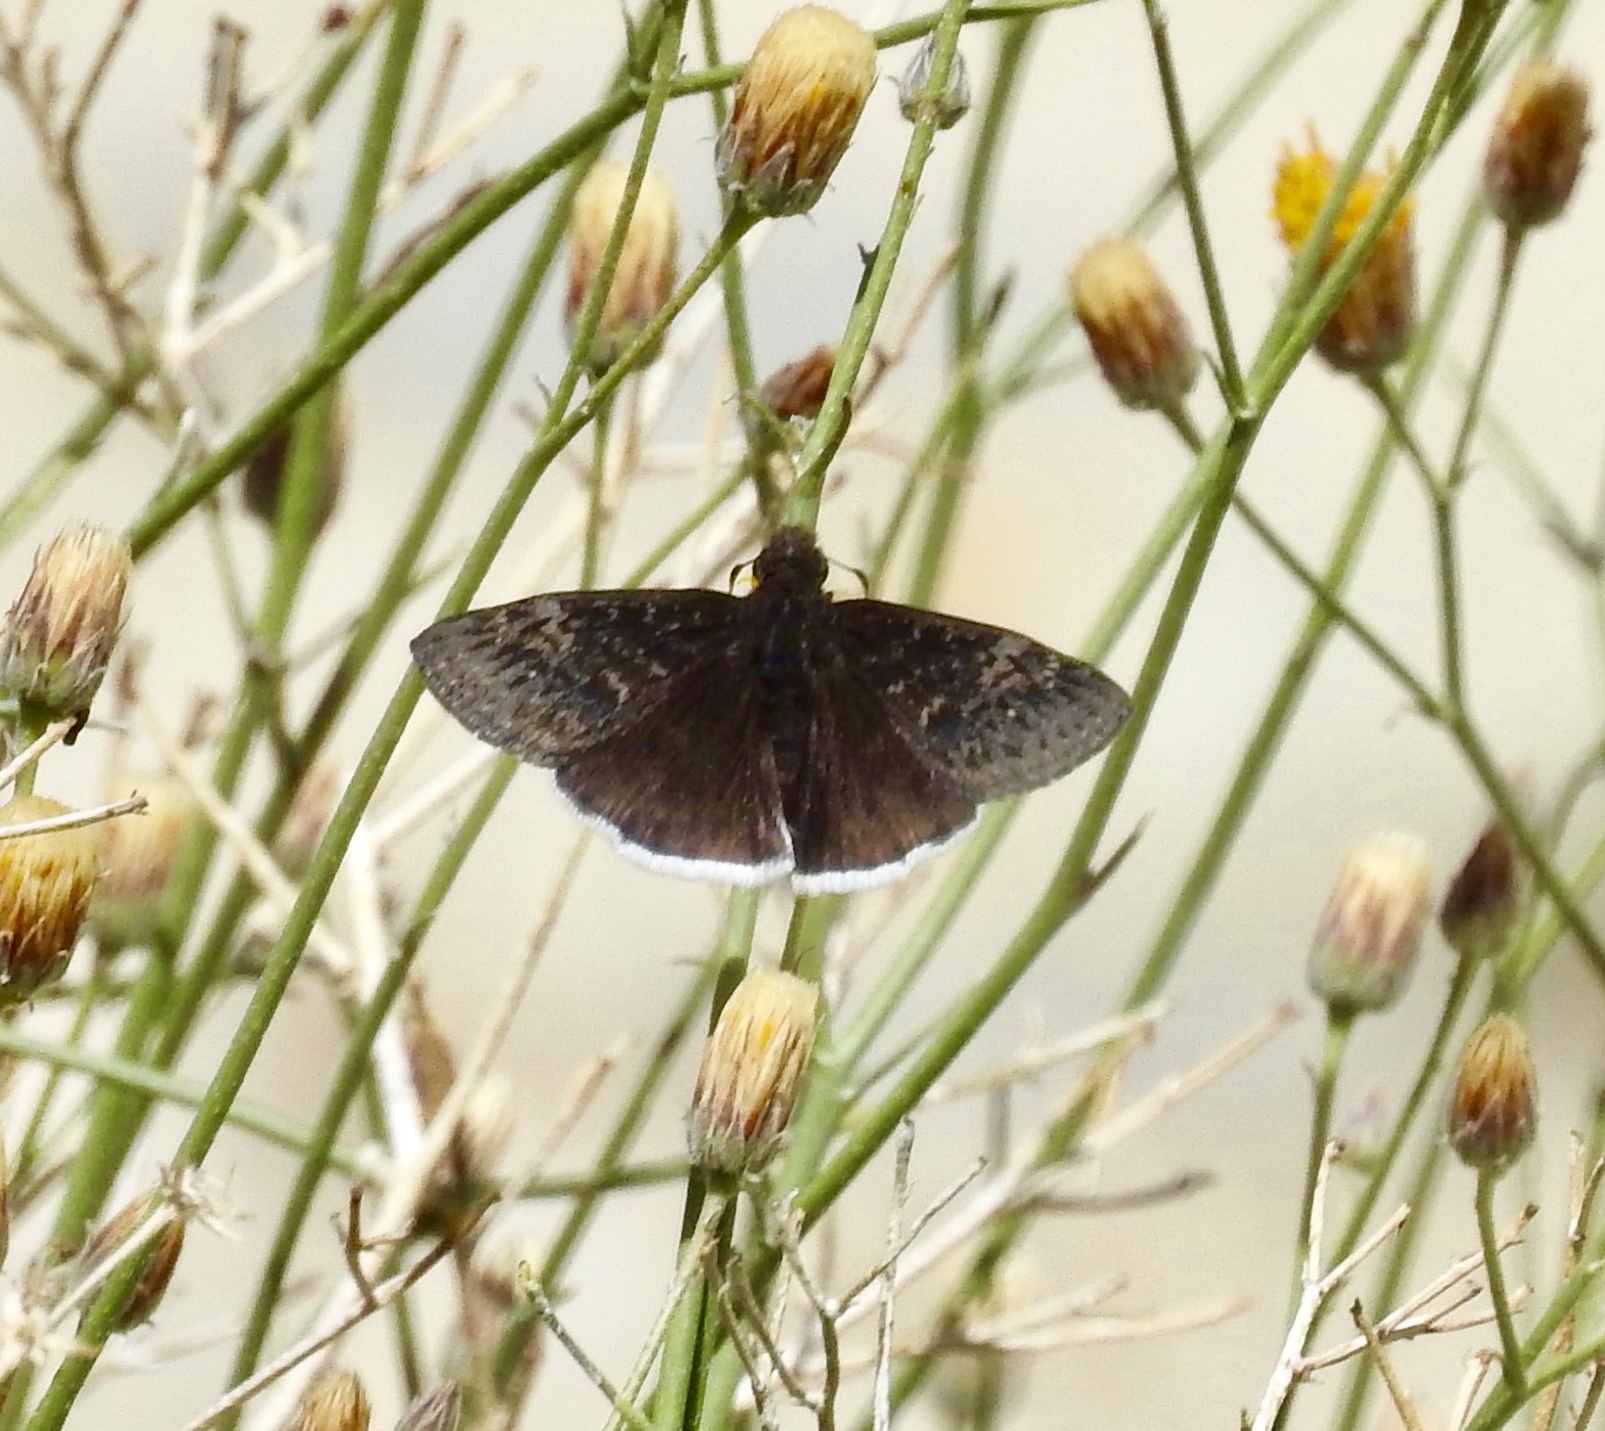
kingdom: Animalia
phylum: Arthropoda
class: Insecta
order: Lepidoptera
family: Hesperiidae
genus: Erynnis
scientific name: Erynnis funeralis
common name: Funereal duskywing
